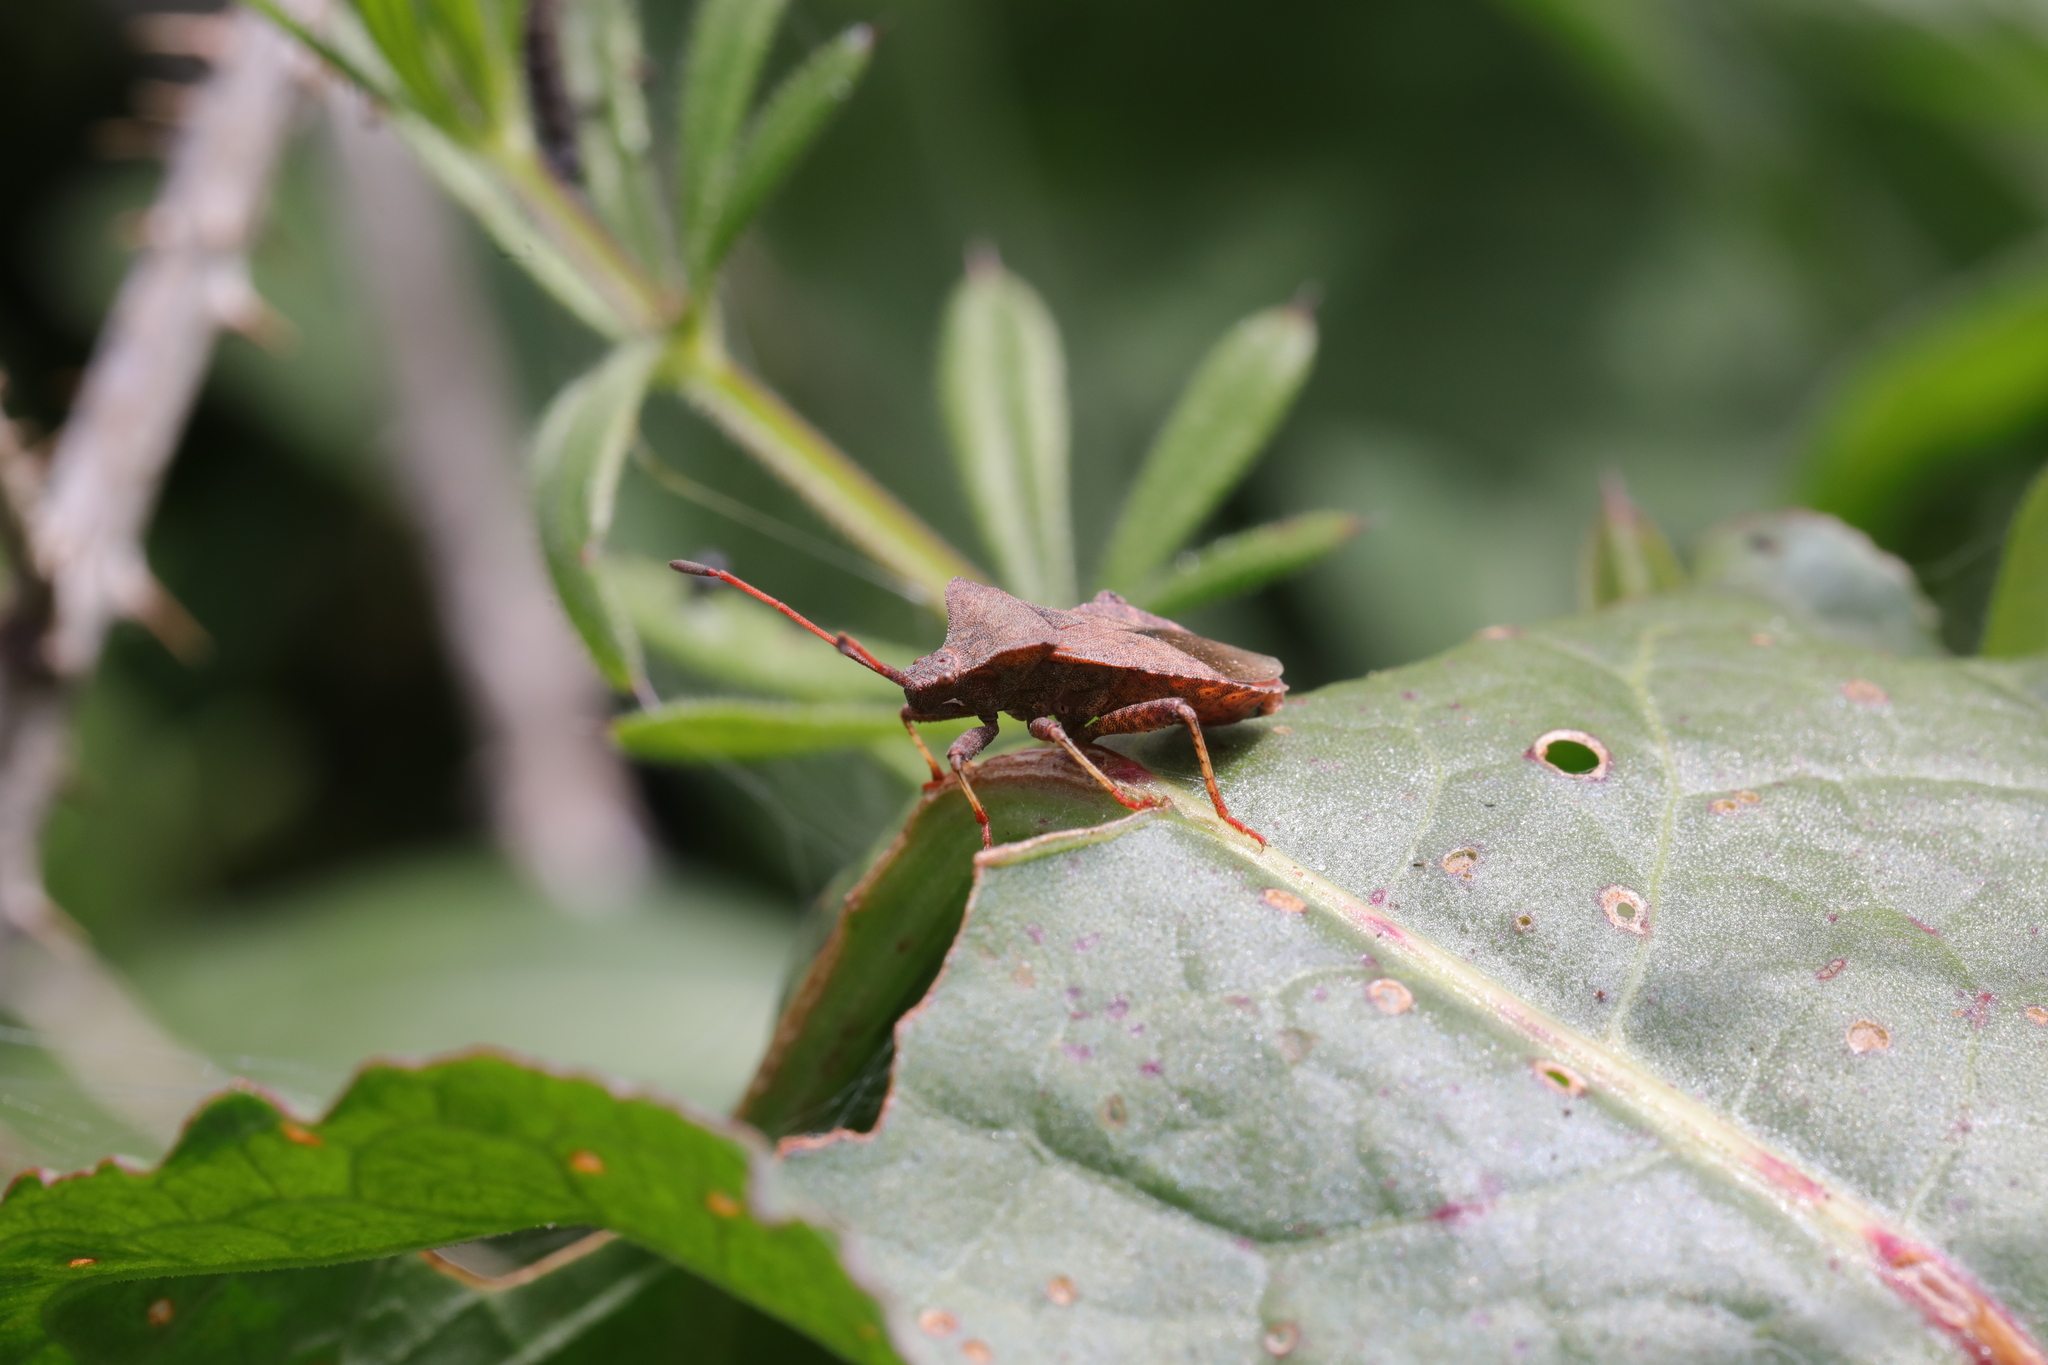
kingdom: Animalia
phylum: Arthropoda
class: Insecta
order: Hemiptera
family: Coreidae
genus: Coreus
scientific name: Coreus marginatus
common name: Dock bug
